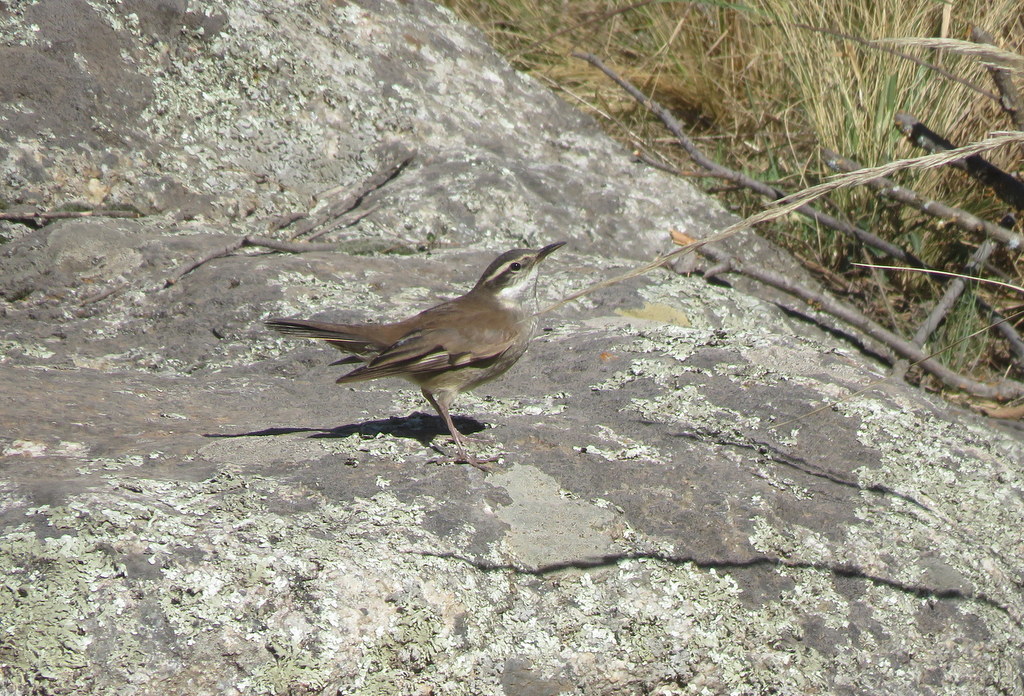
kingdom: Animalia
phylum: Chordata
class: Aves
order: Passeriformes
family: Furnariidae
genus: Cinclodes
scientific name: Cinclodes fuscus
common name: Buff-winged cinclodes
